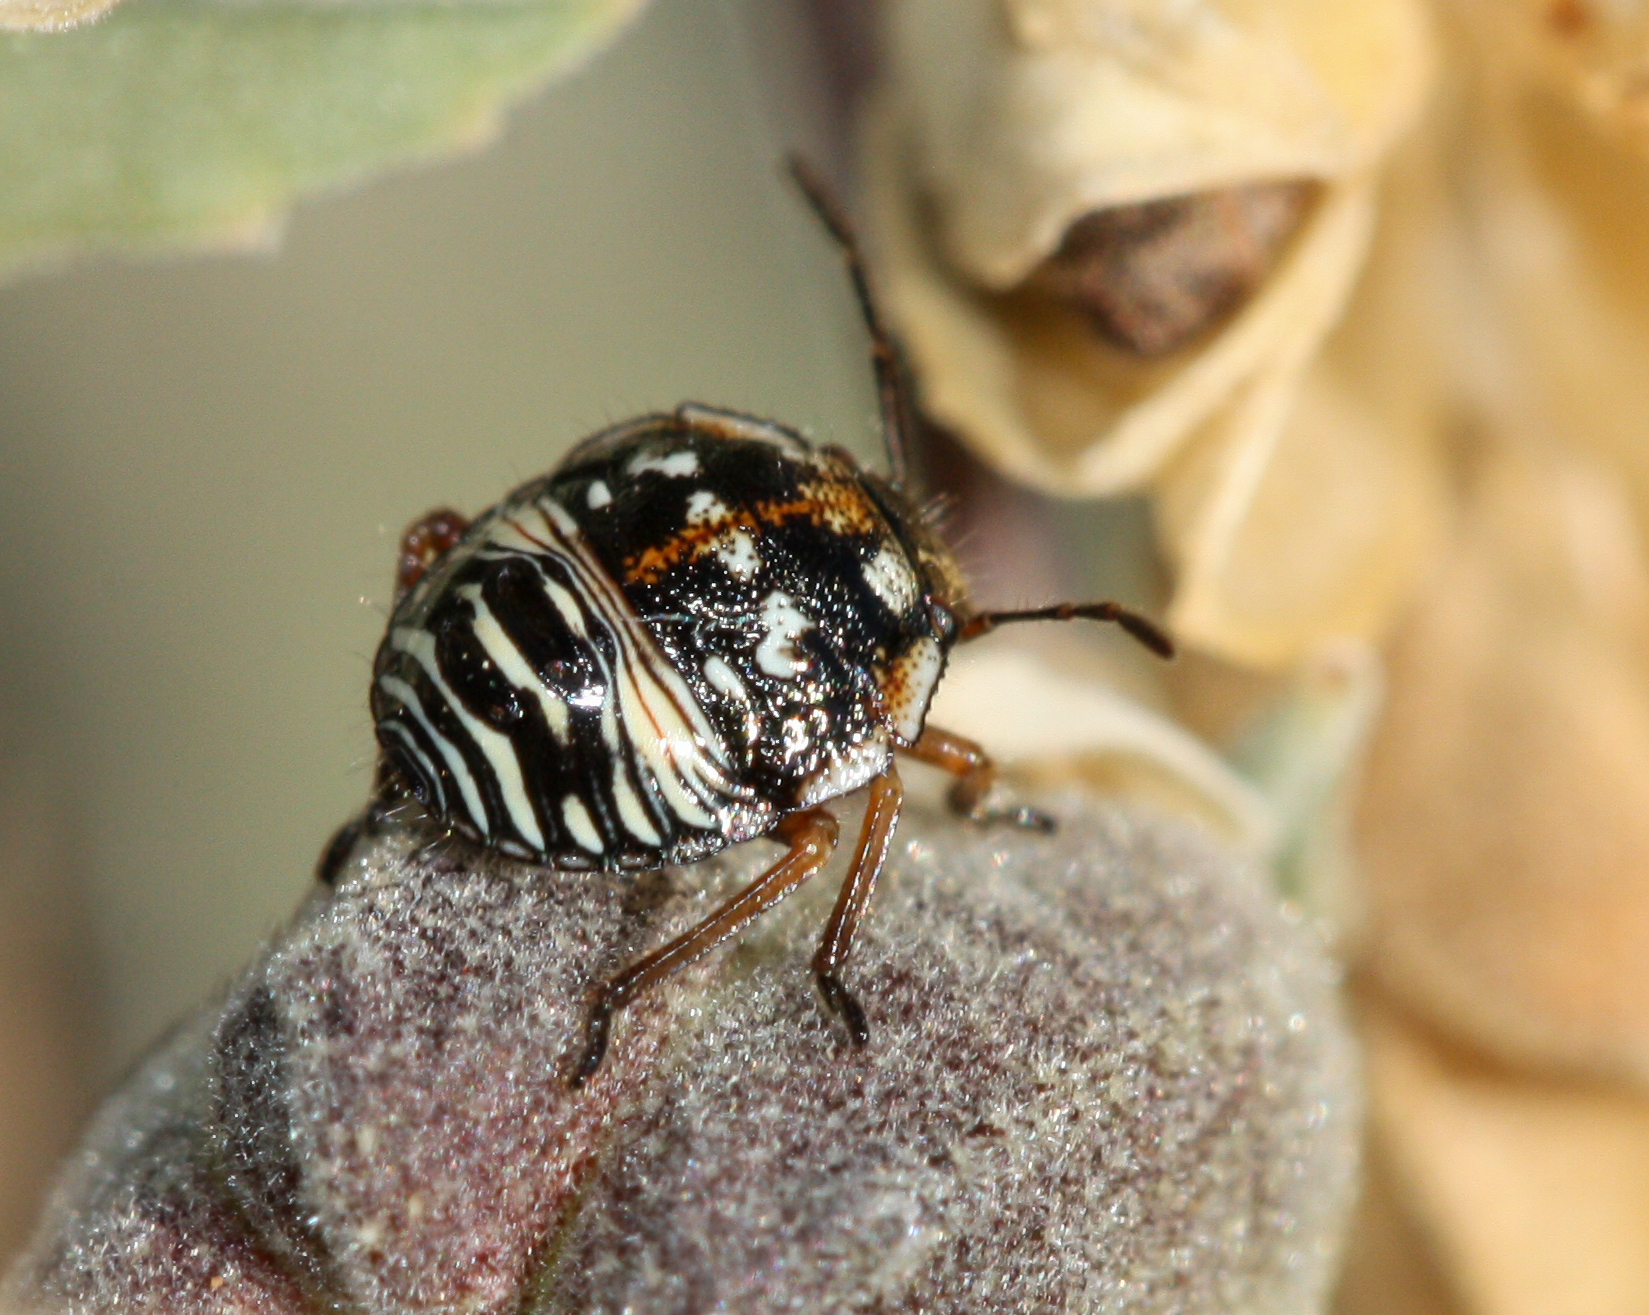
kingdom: Animalia
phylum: Arthropoda
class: Insecta
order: Hemiptera
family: Pentatomidae
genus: Thyanta
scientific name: Thyanta accerra
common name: Stink bug
